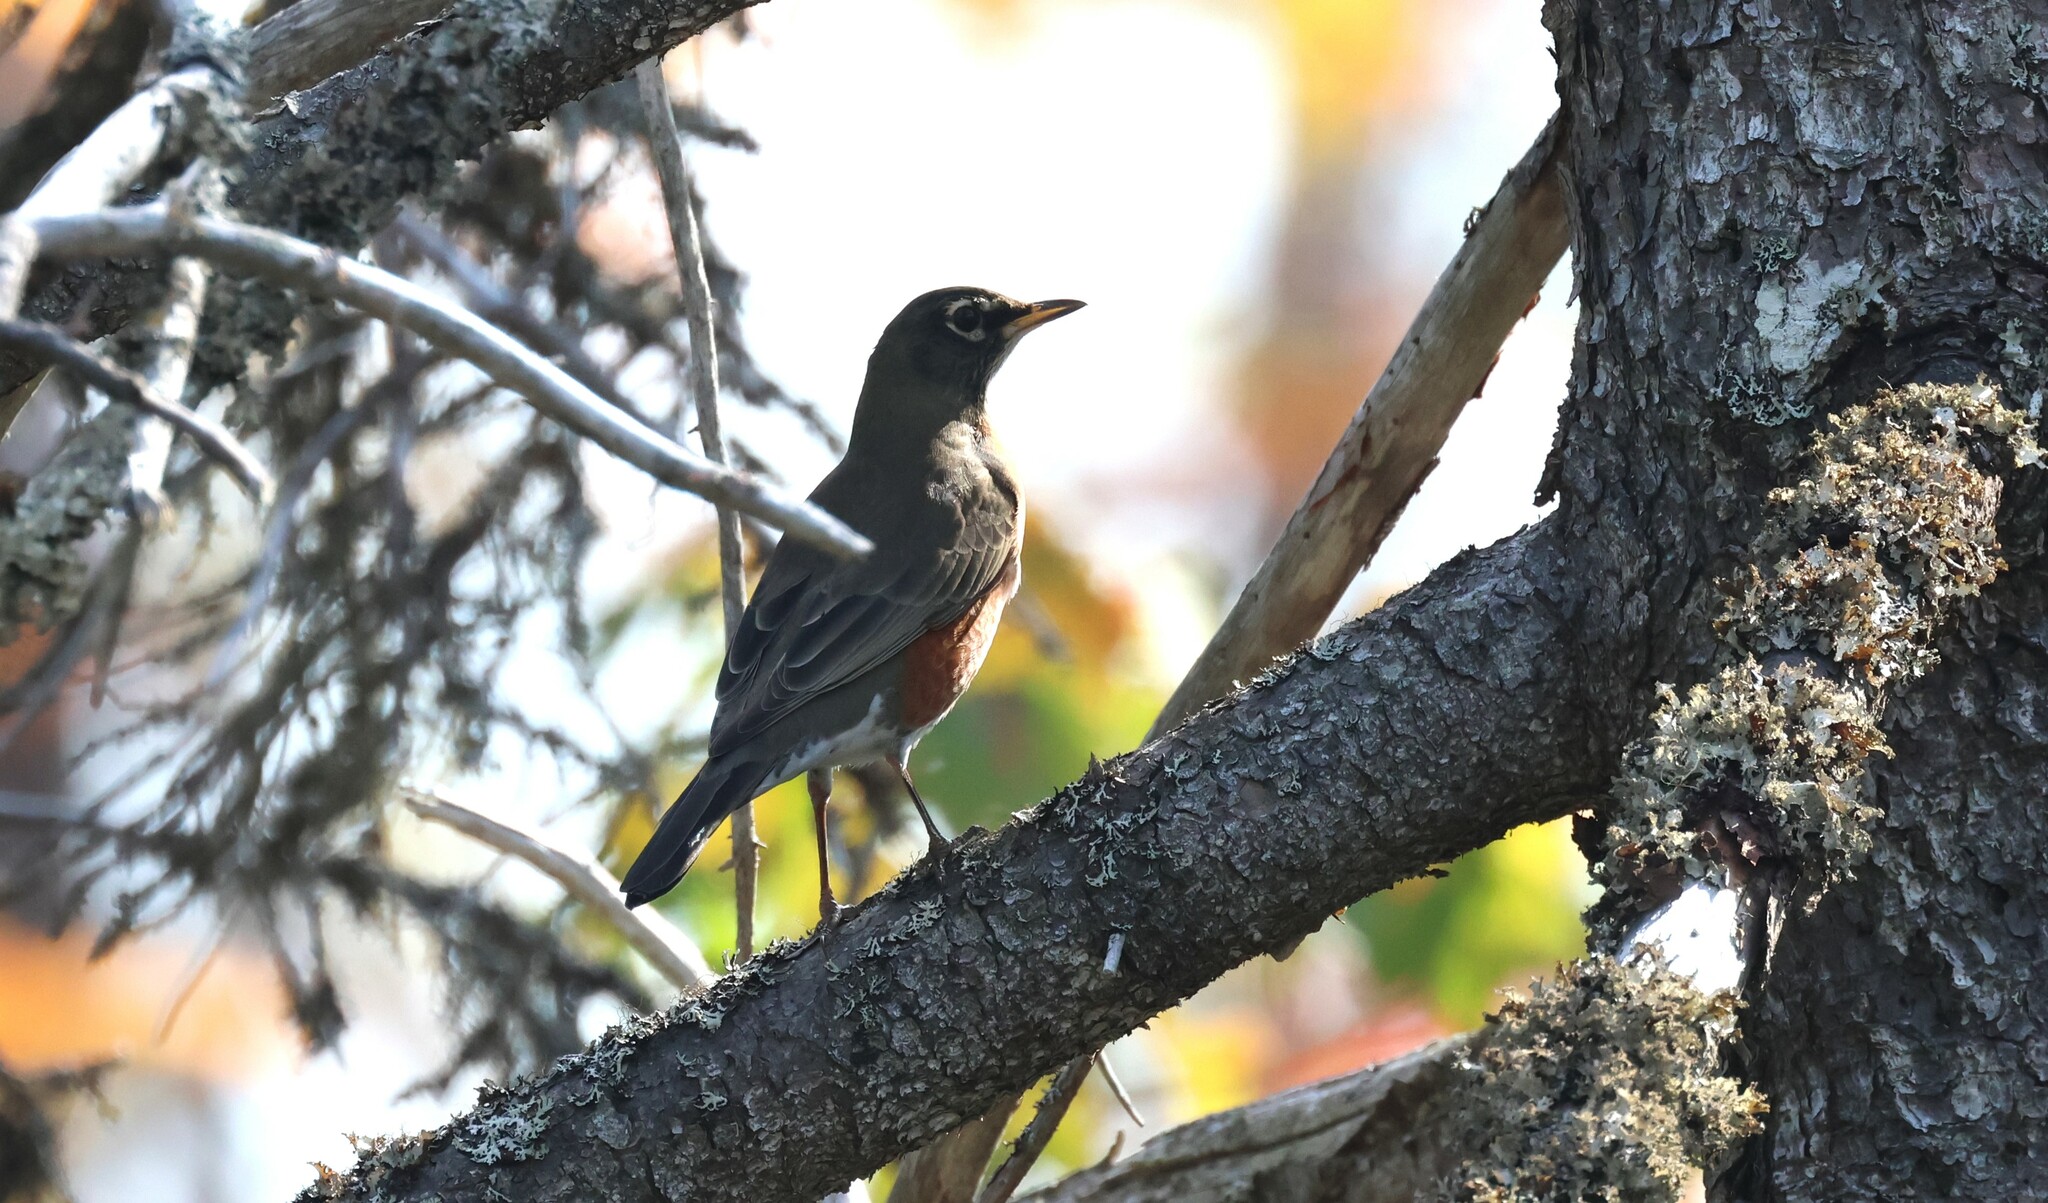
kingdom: Animalia
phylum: Chordata
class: Aves
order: Passeriformes
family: Turdidae
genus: Turdus
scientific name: Turdus migratorius
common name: American robin
